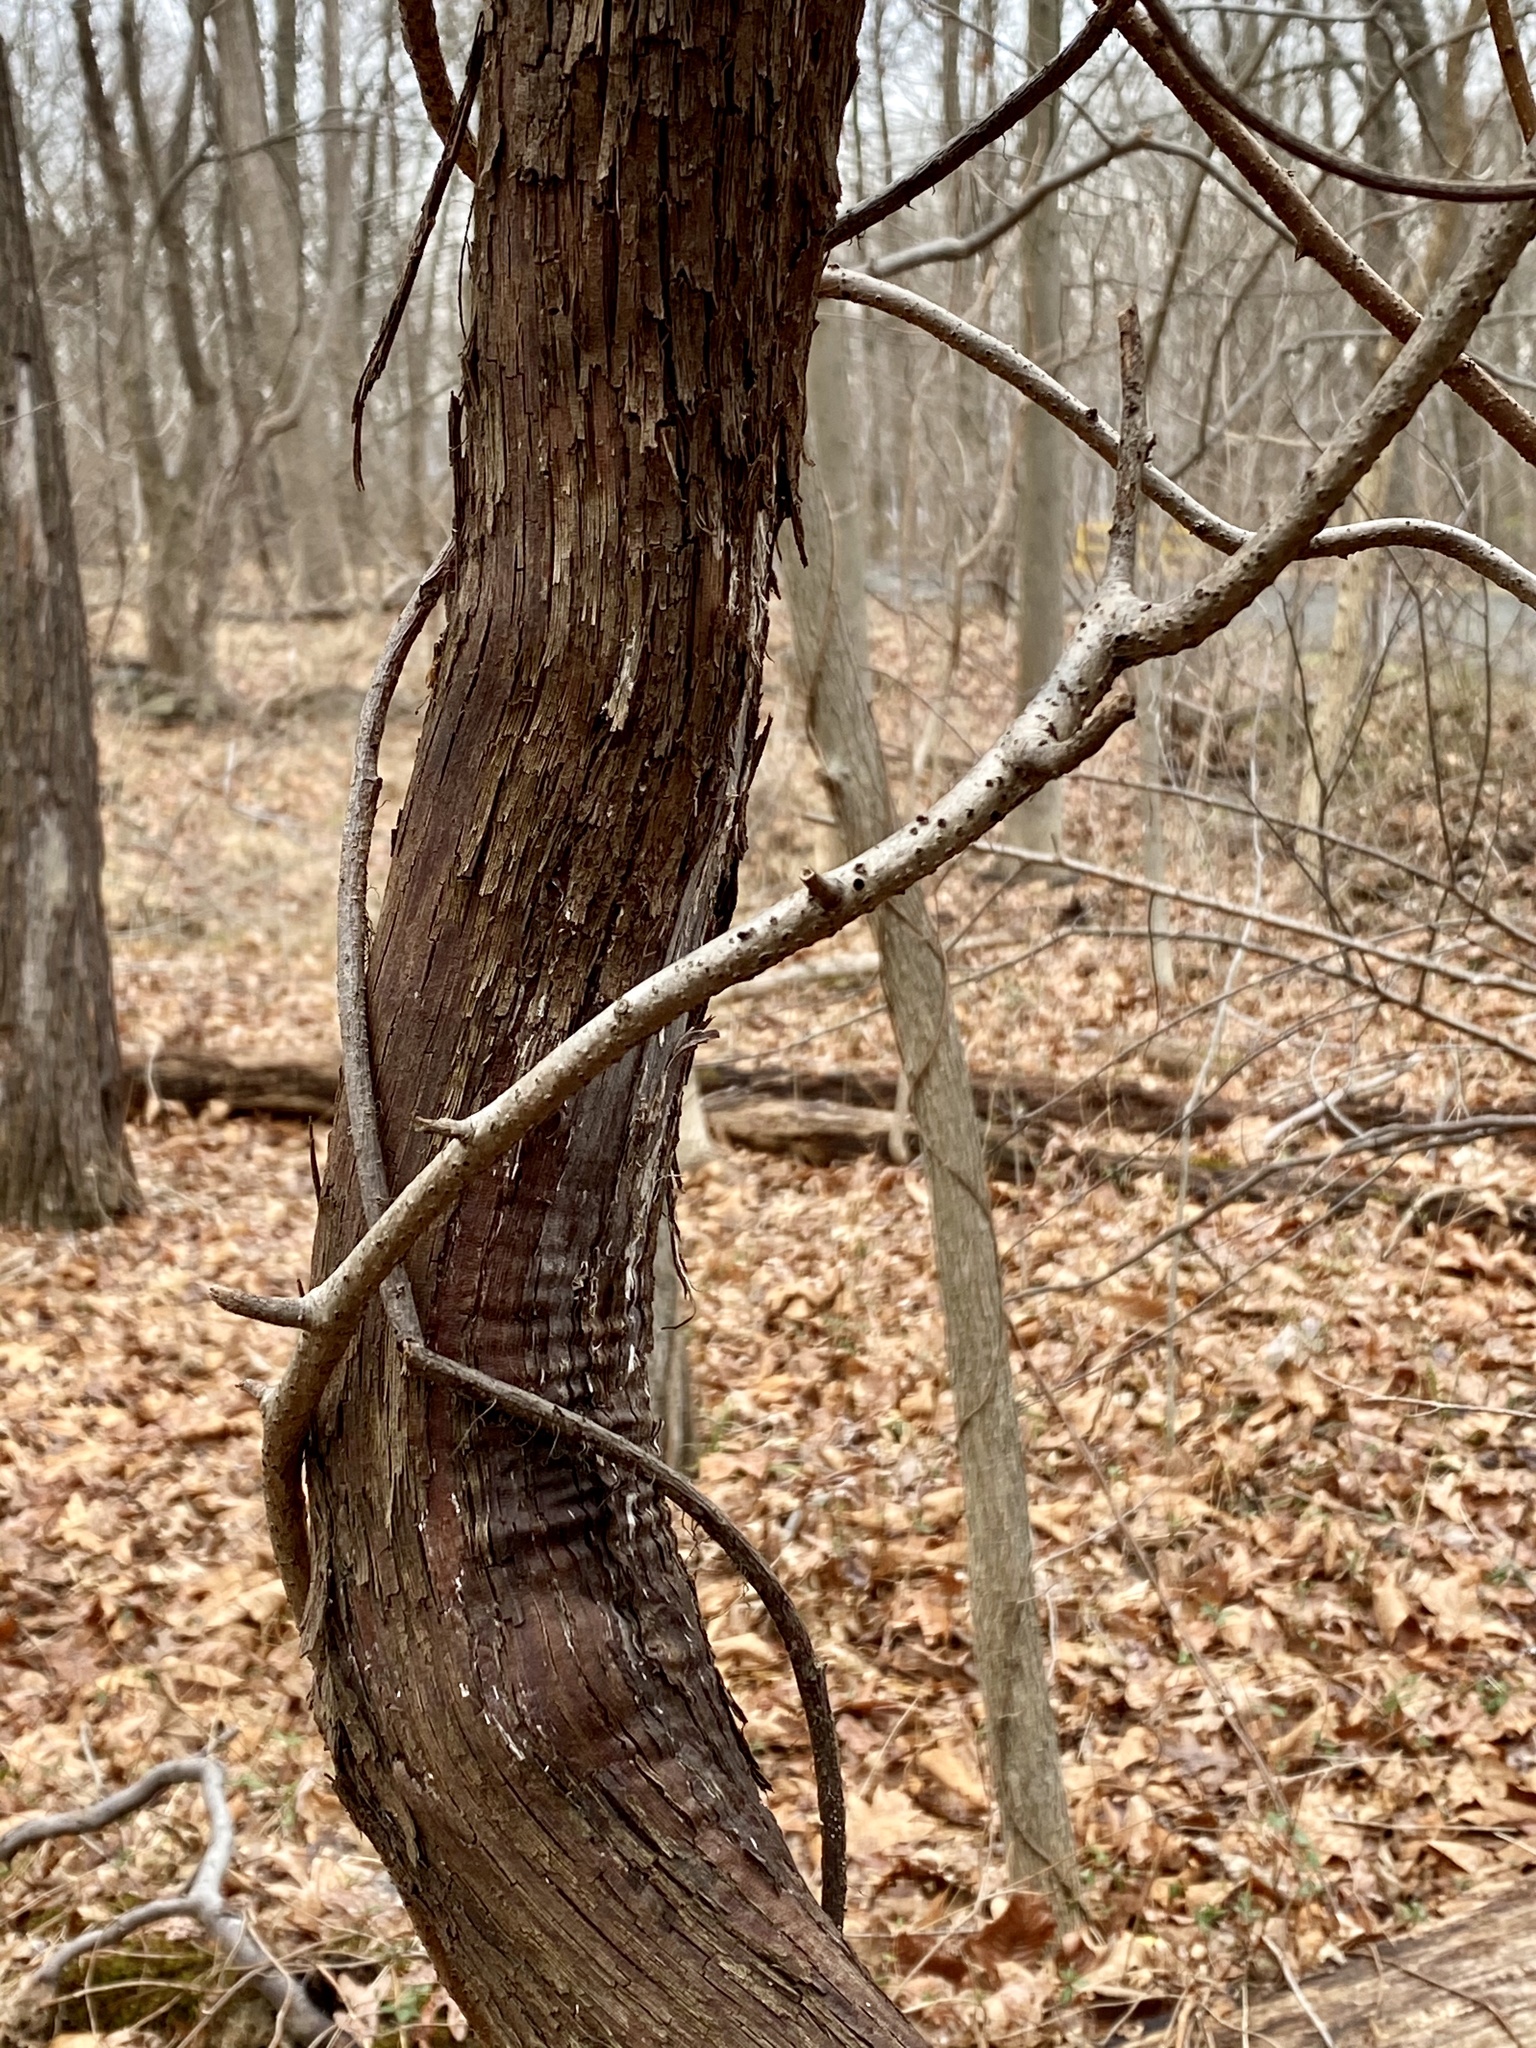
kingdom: Plantae
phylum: Tracheophyta
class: Magnoliopsida
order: Vitales
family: Vitaceae
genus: Vitis
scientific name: Vitis
